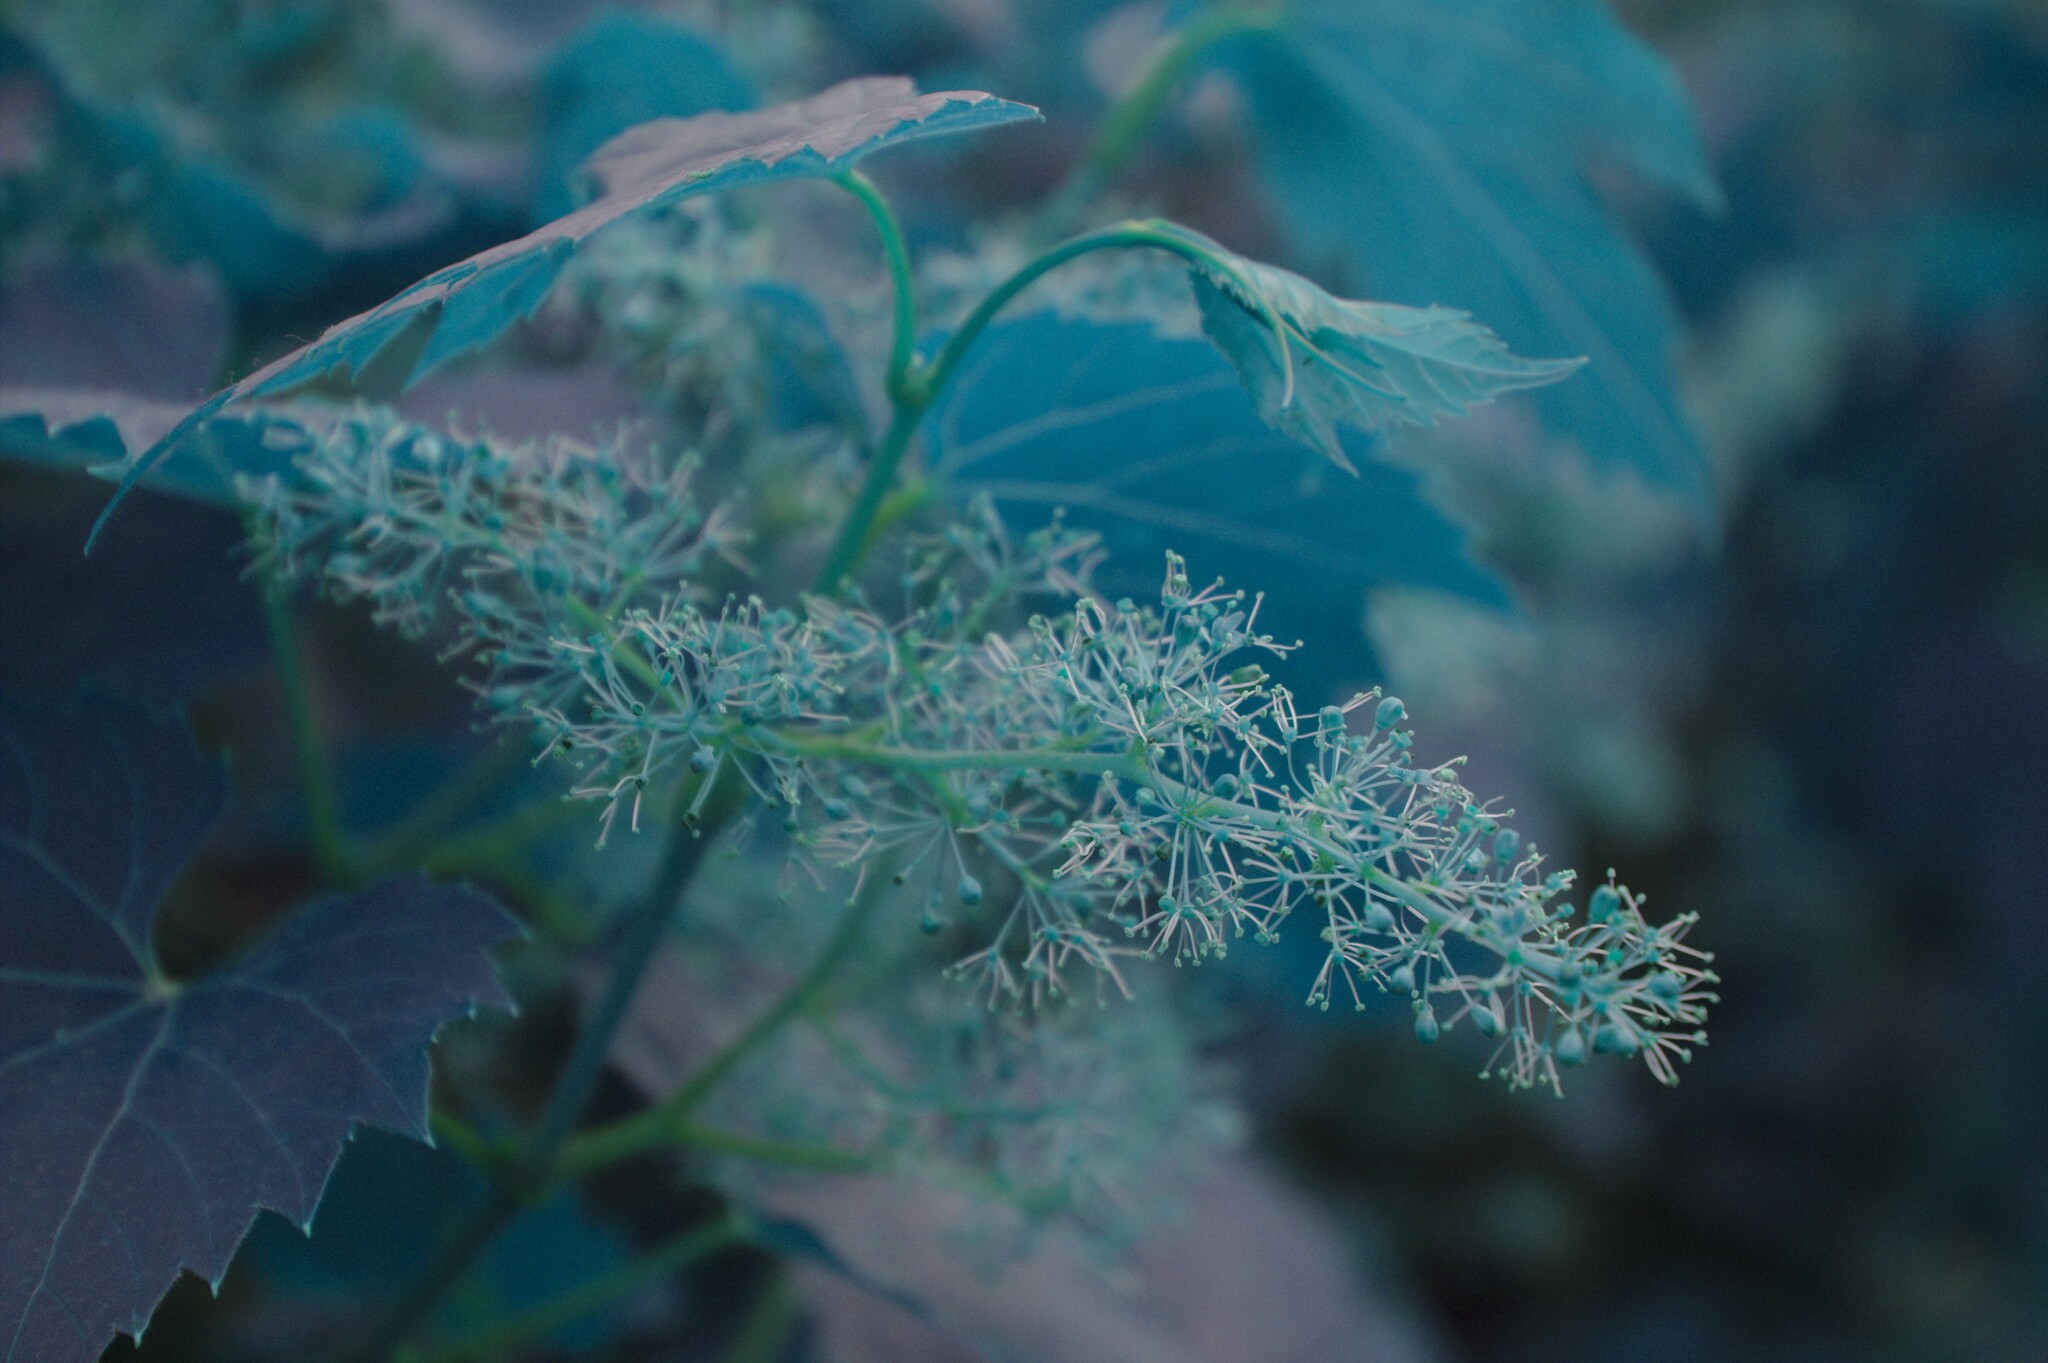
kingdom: Plantae
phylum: Tracheophyta
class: Magnoliopsida
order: Vitales
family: Vitaceae
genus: Vitis
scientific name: Vitis riparia
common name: Frost grape
